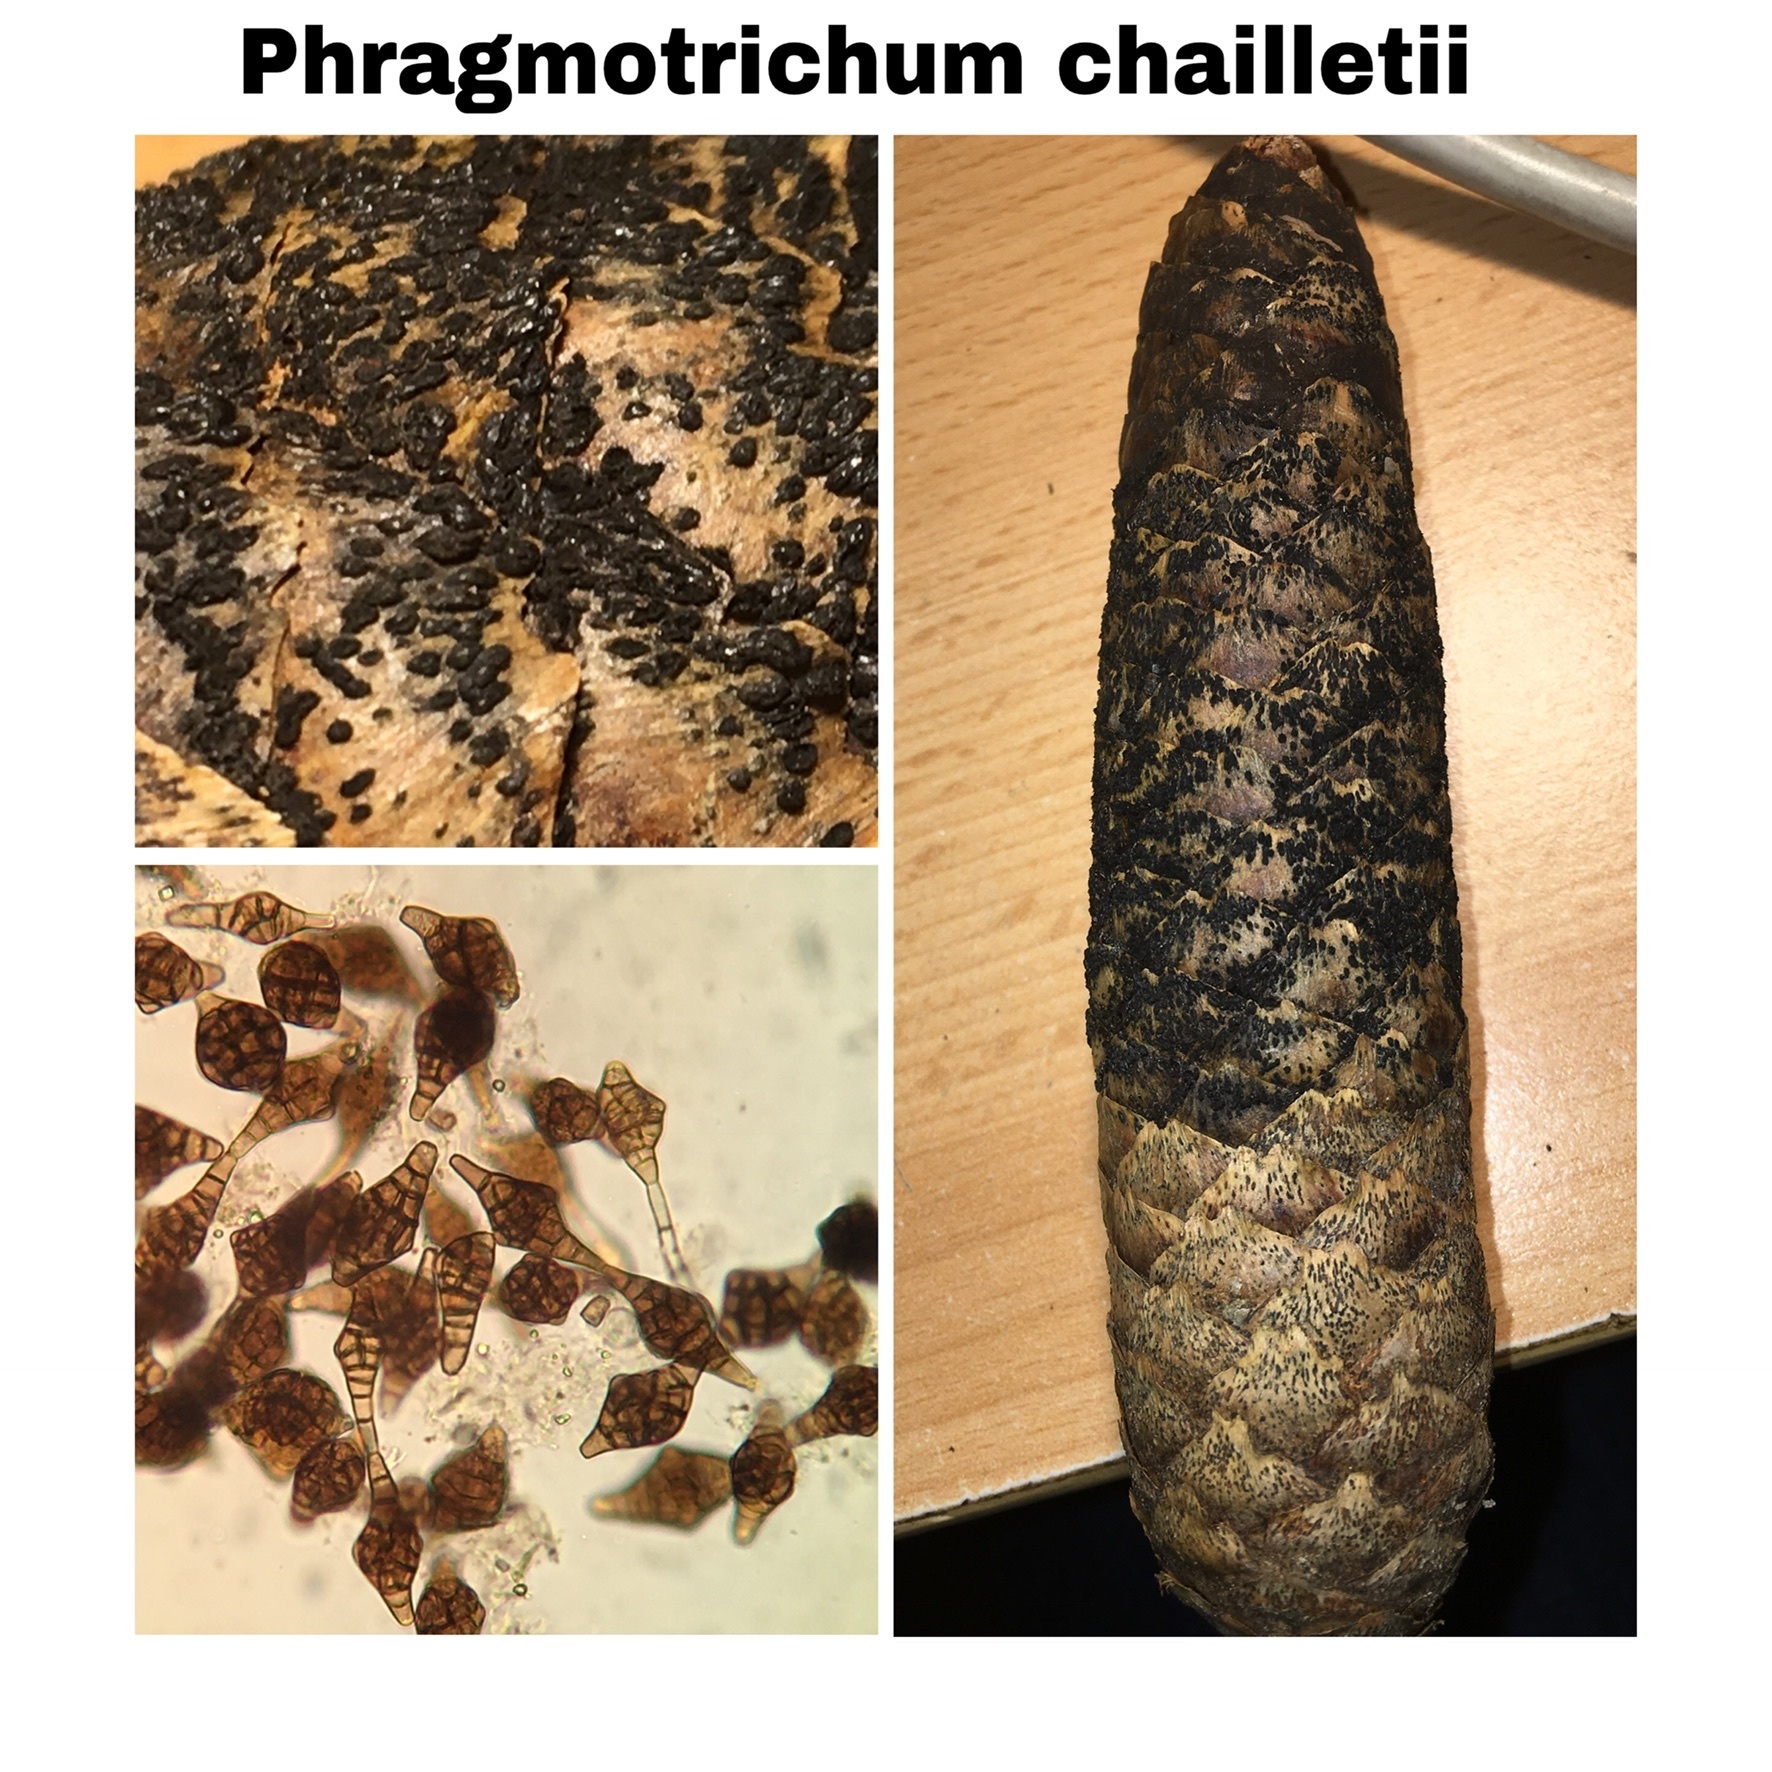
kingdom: Fungi
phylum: Ascomycota
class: Dothideomycetes
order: Pleosporales
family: Melanommataceae
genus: Phragmotrichum
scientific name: Phragmotrichum chailletii
